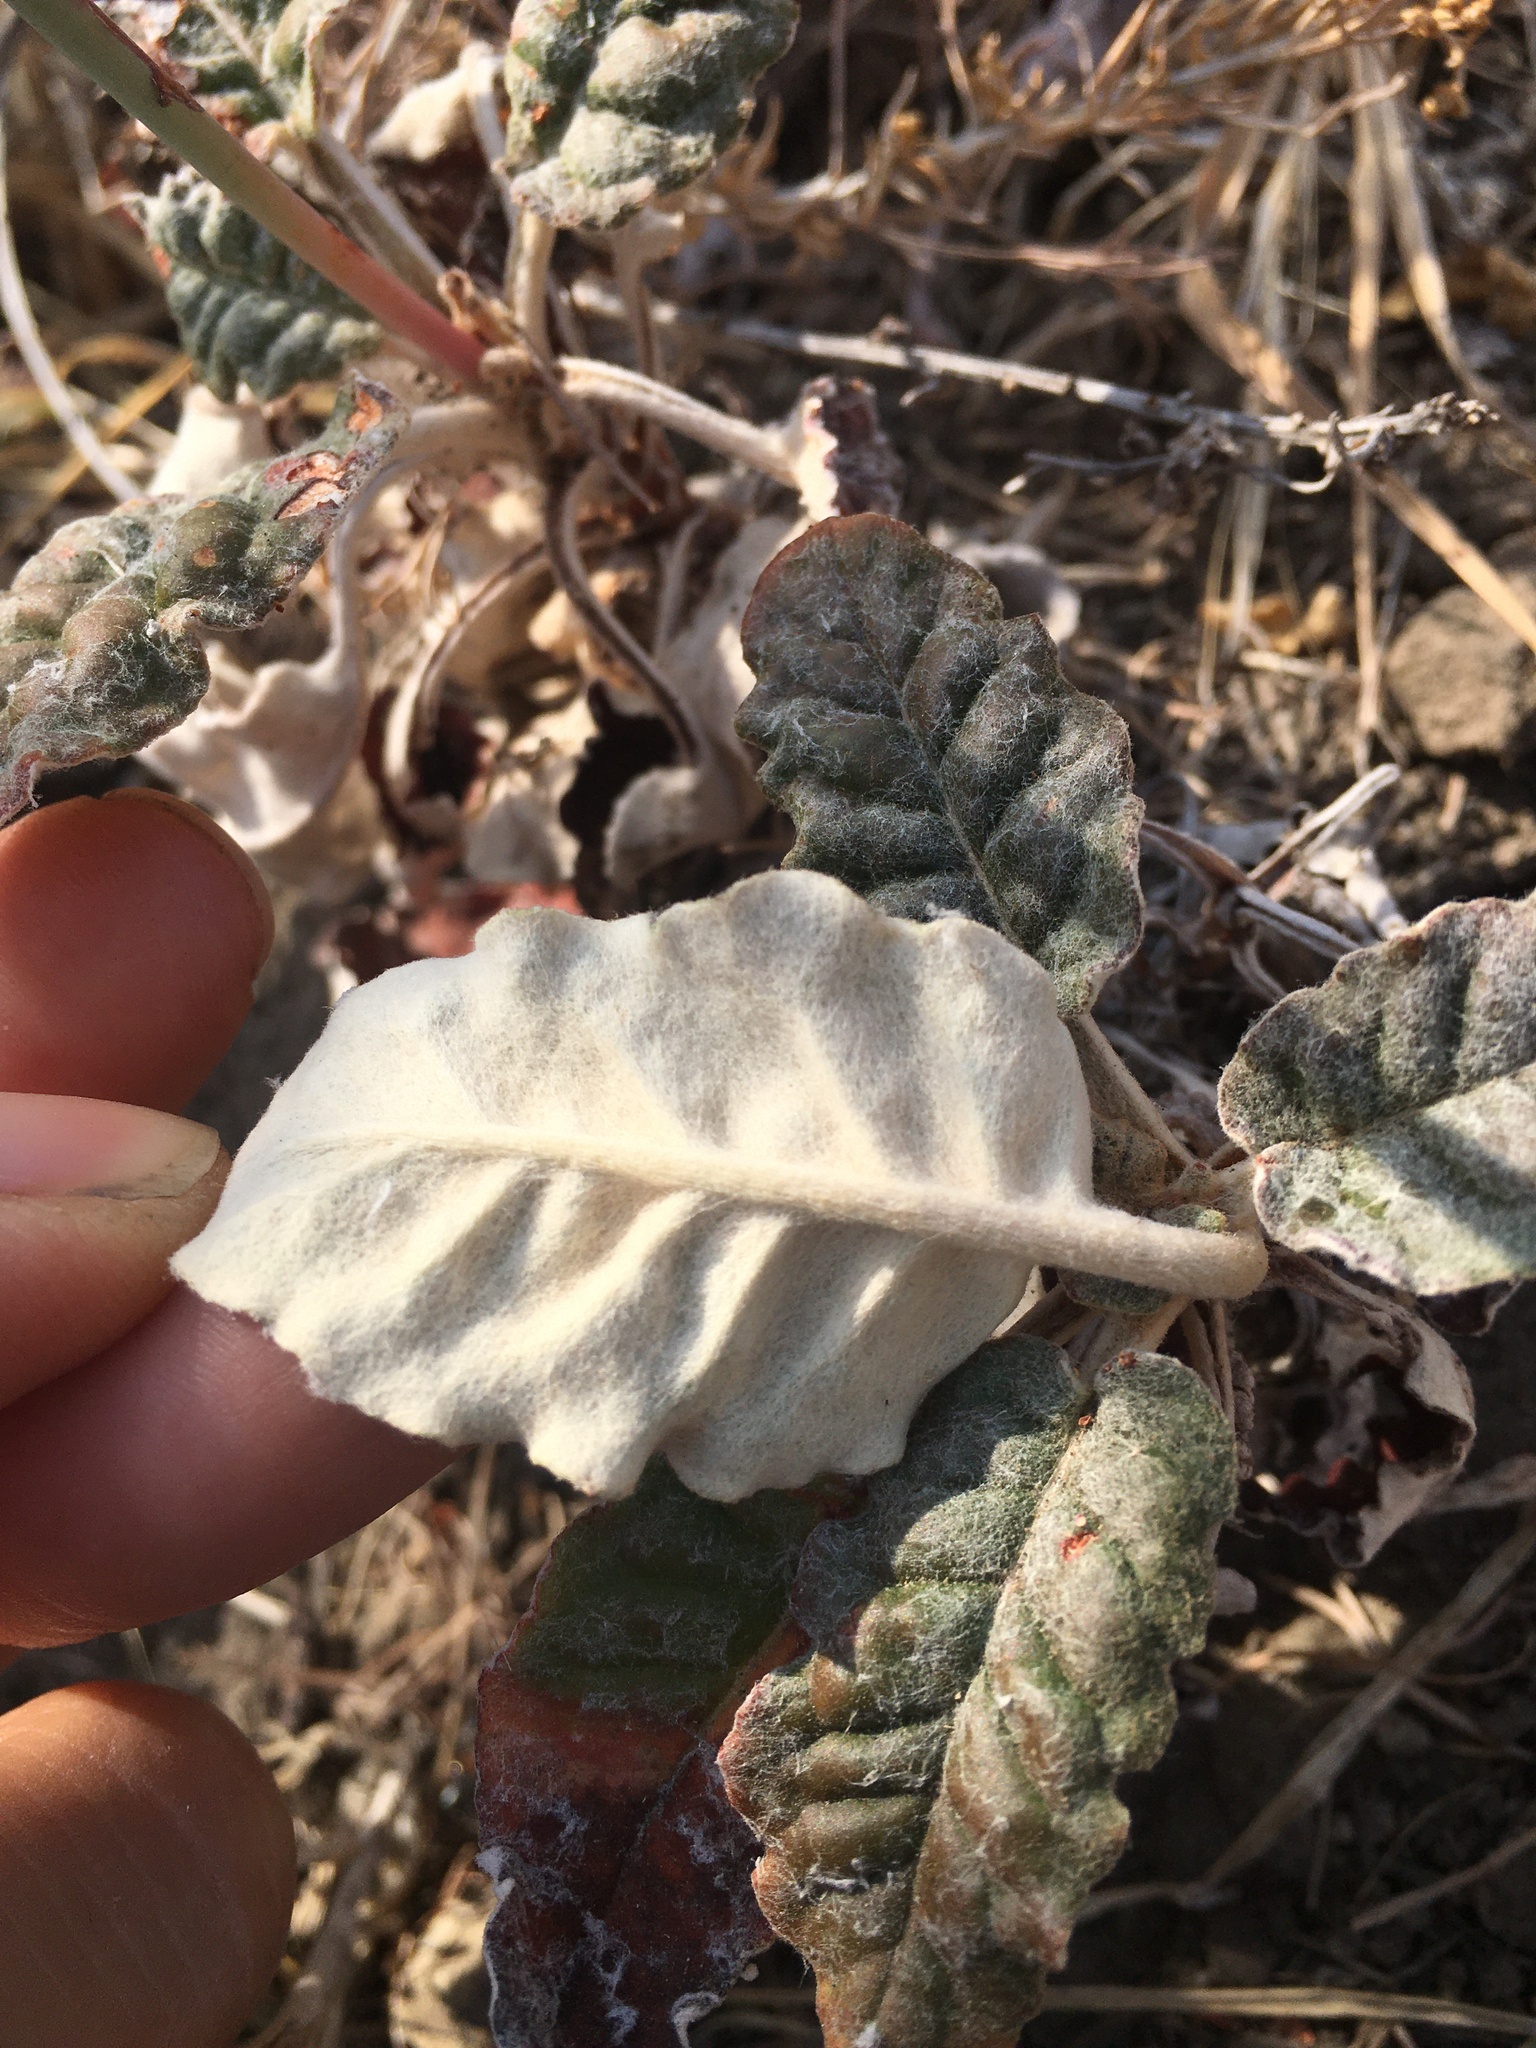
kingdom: Plantae
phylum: Tracheophyta
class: Magnoliopsida
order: Caryophyllales
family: Polygonaceae
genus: Eriogonum
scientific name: Eriogonum nudum
